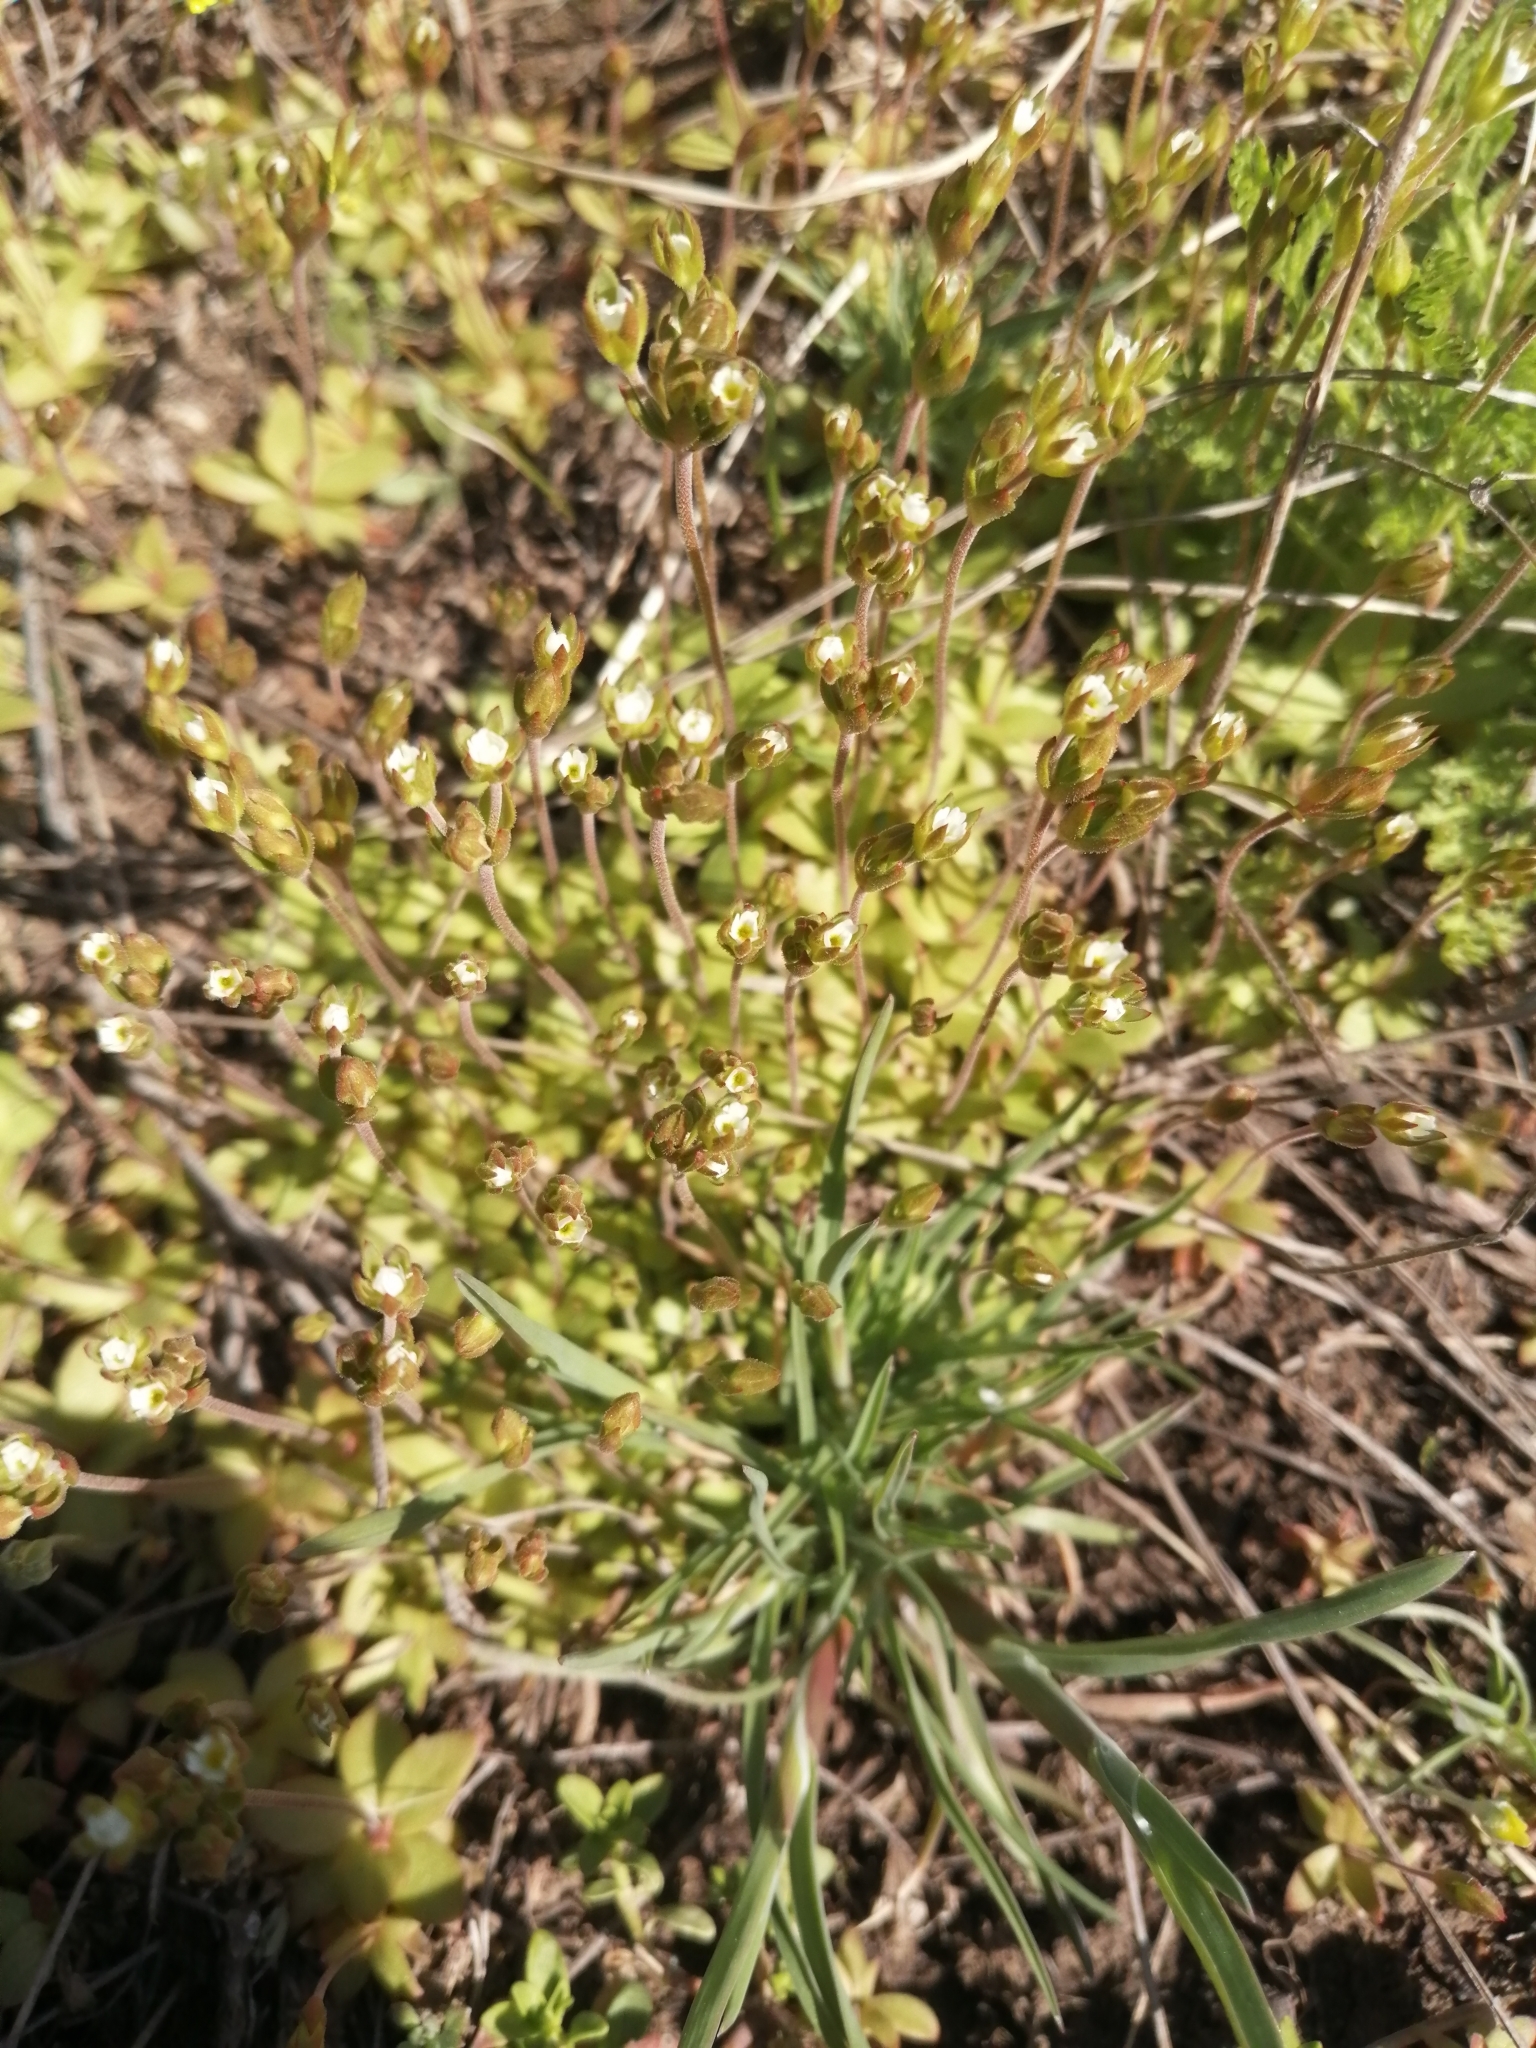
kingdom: Plantae
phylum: Tracheophyta
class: Magnoliopsida
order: Ericales
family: Primulaceae
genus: Androsace
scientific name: Androsace elongata
